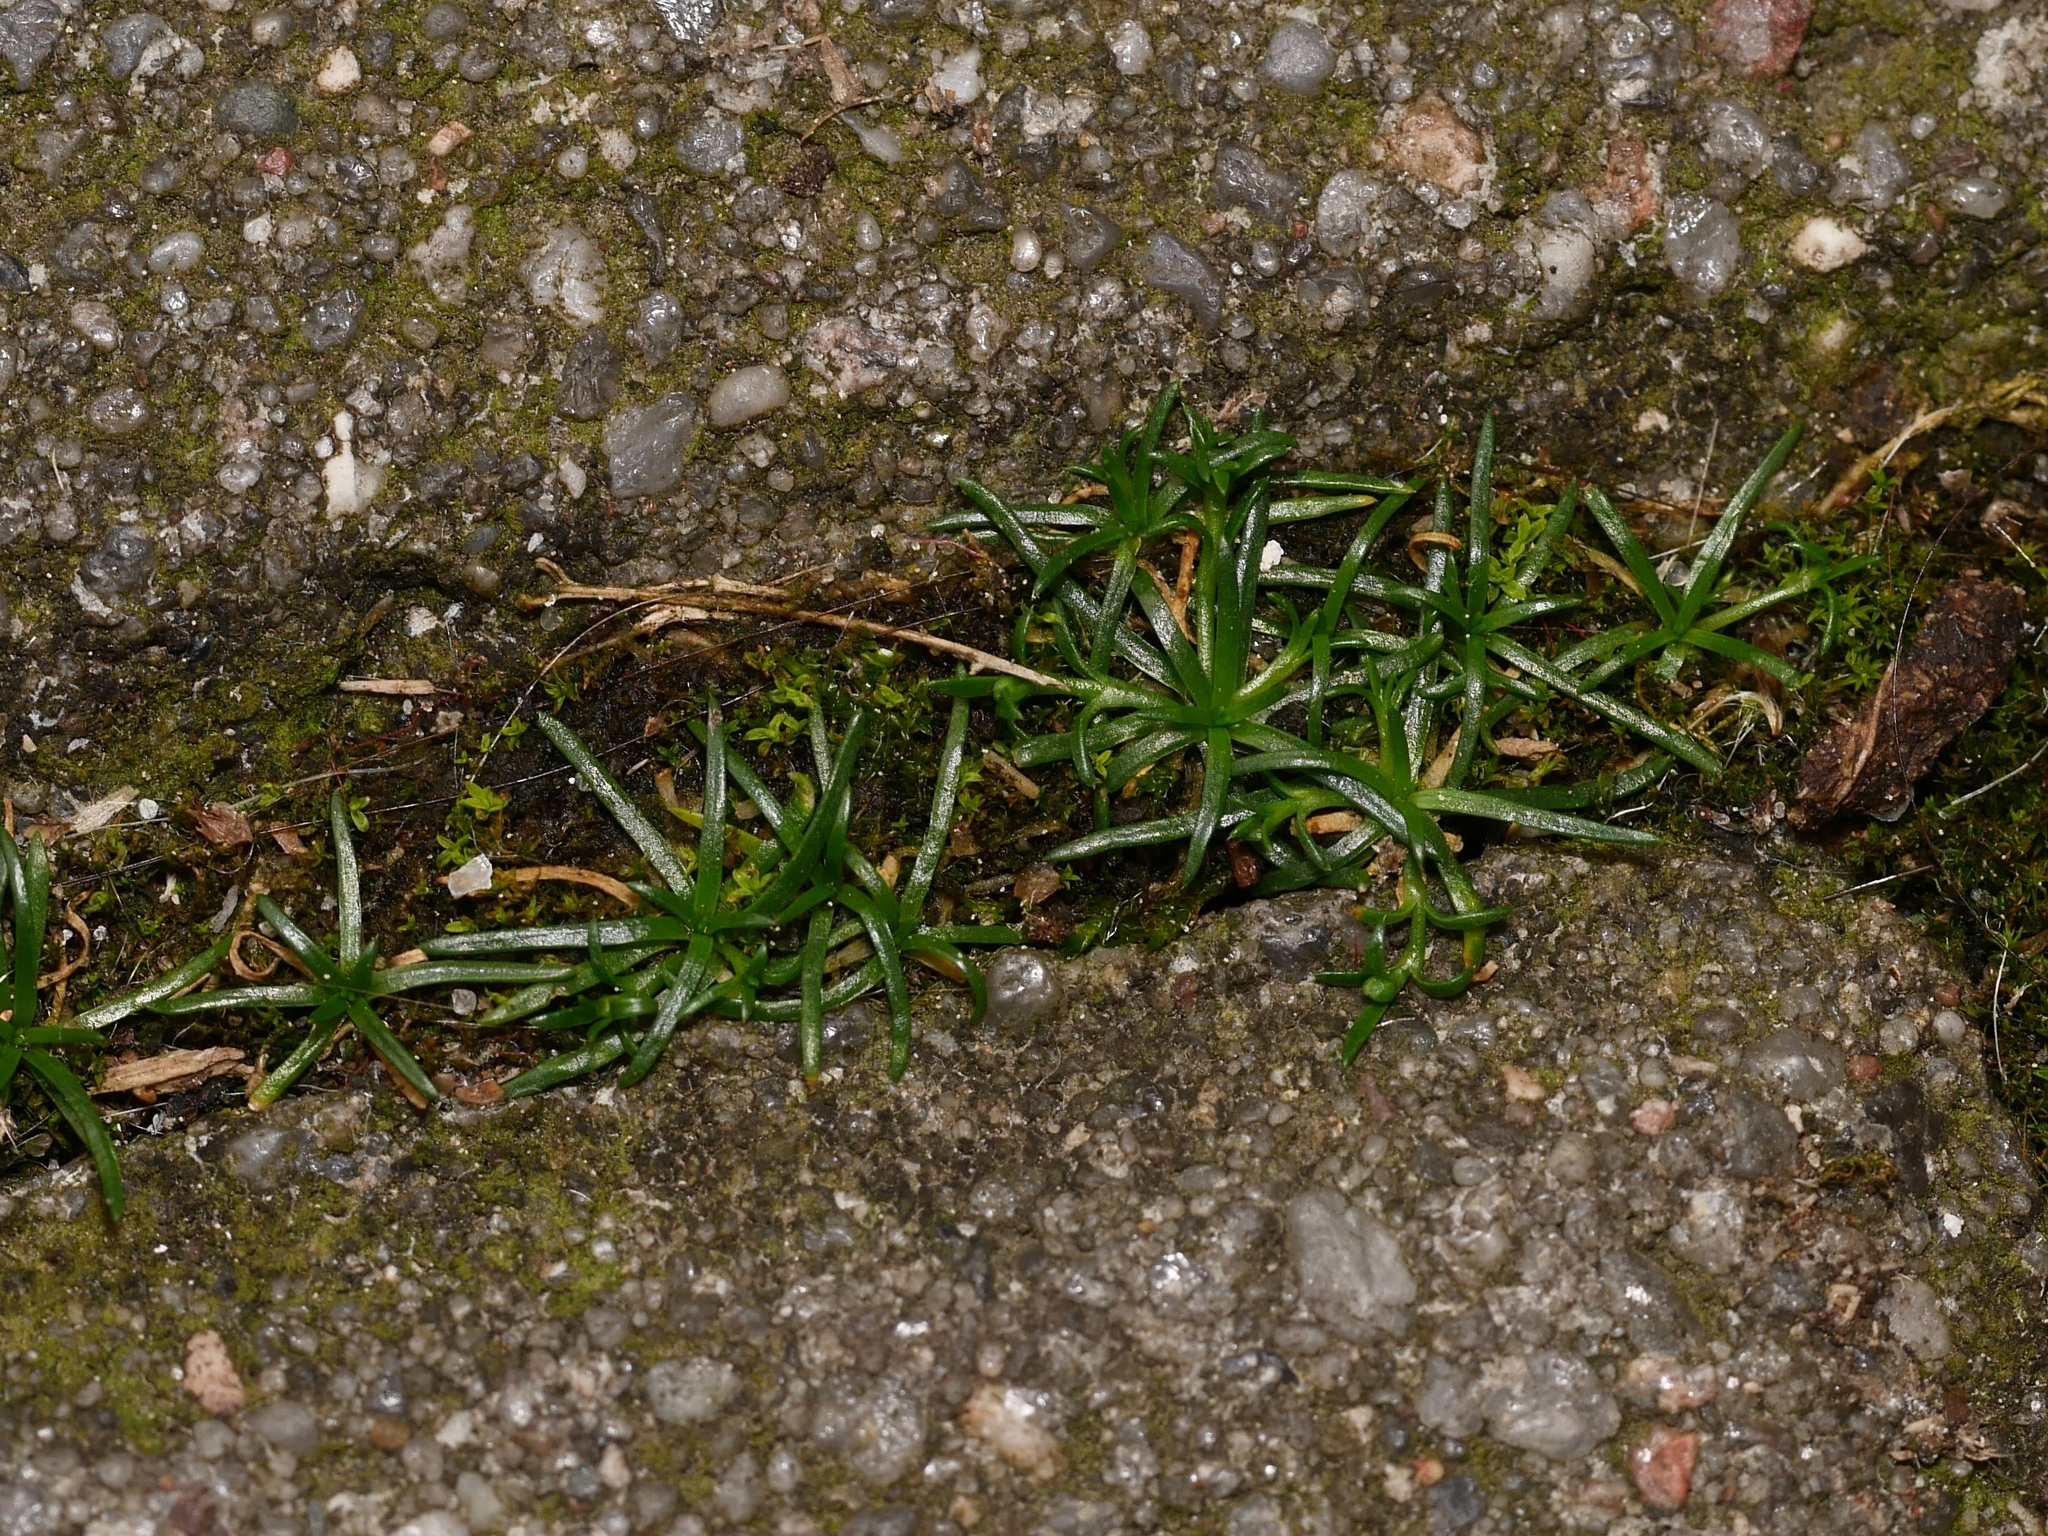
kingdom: Plantae
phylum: Tracheophyta
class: Magnoliopsida
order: Caryophyllales
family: Caryophyllaceae
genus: Sagina
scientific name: Sagina procumbens
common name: Procumbent pearlwort
